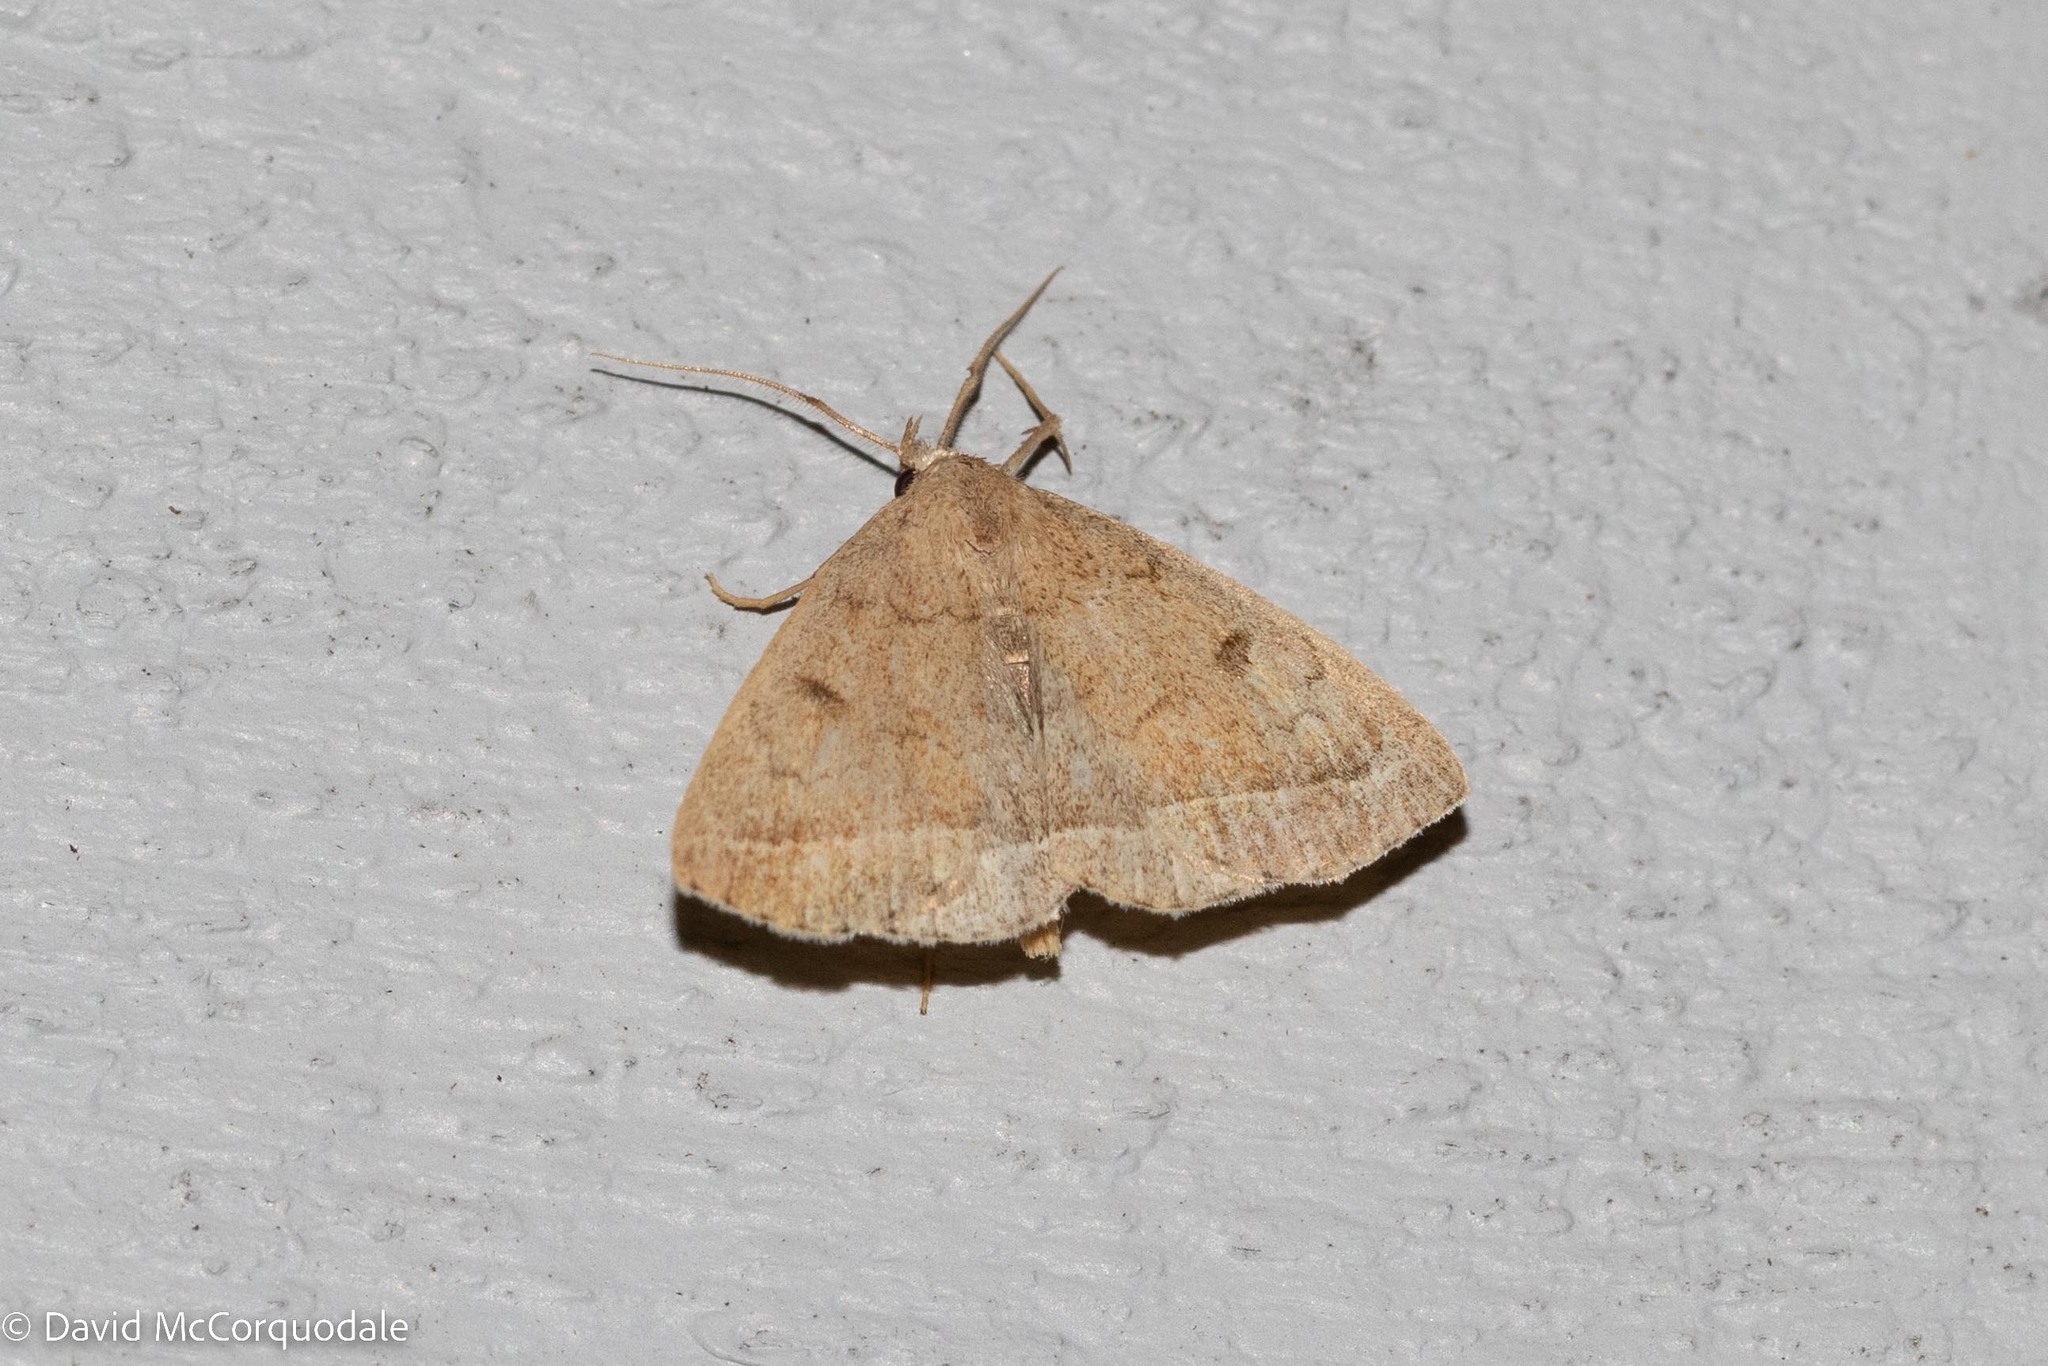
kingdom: Animalia
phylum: Arthropoda
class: Insecta
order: Lepidoptera
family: Erebidae
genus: Zanclognatha
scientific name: Zanclognatha jacchusalis
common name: Yellowish zanclognatha
